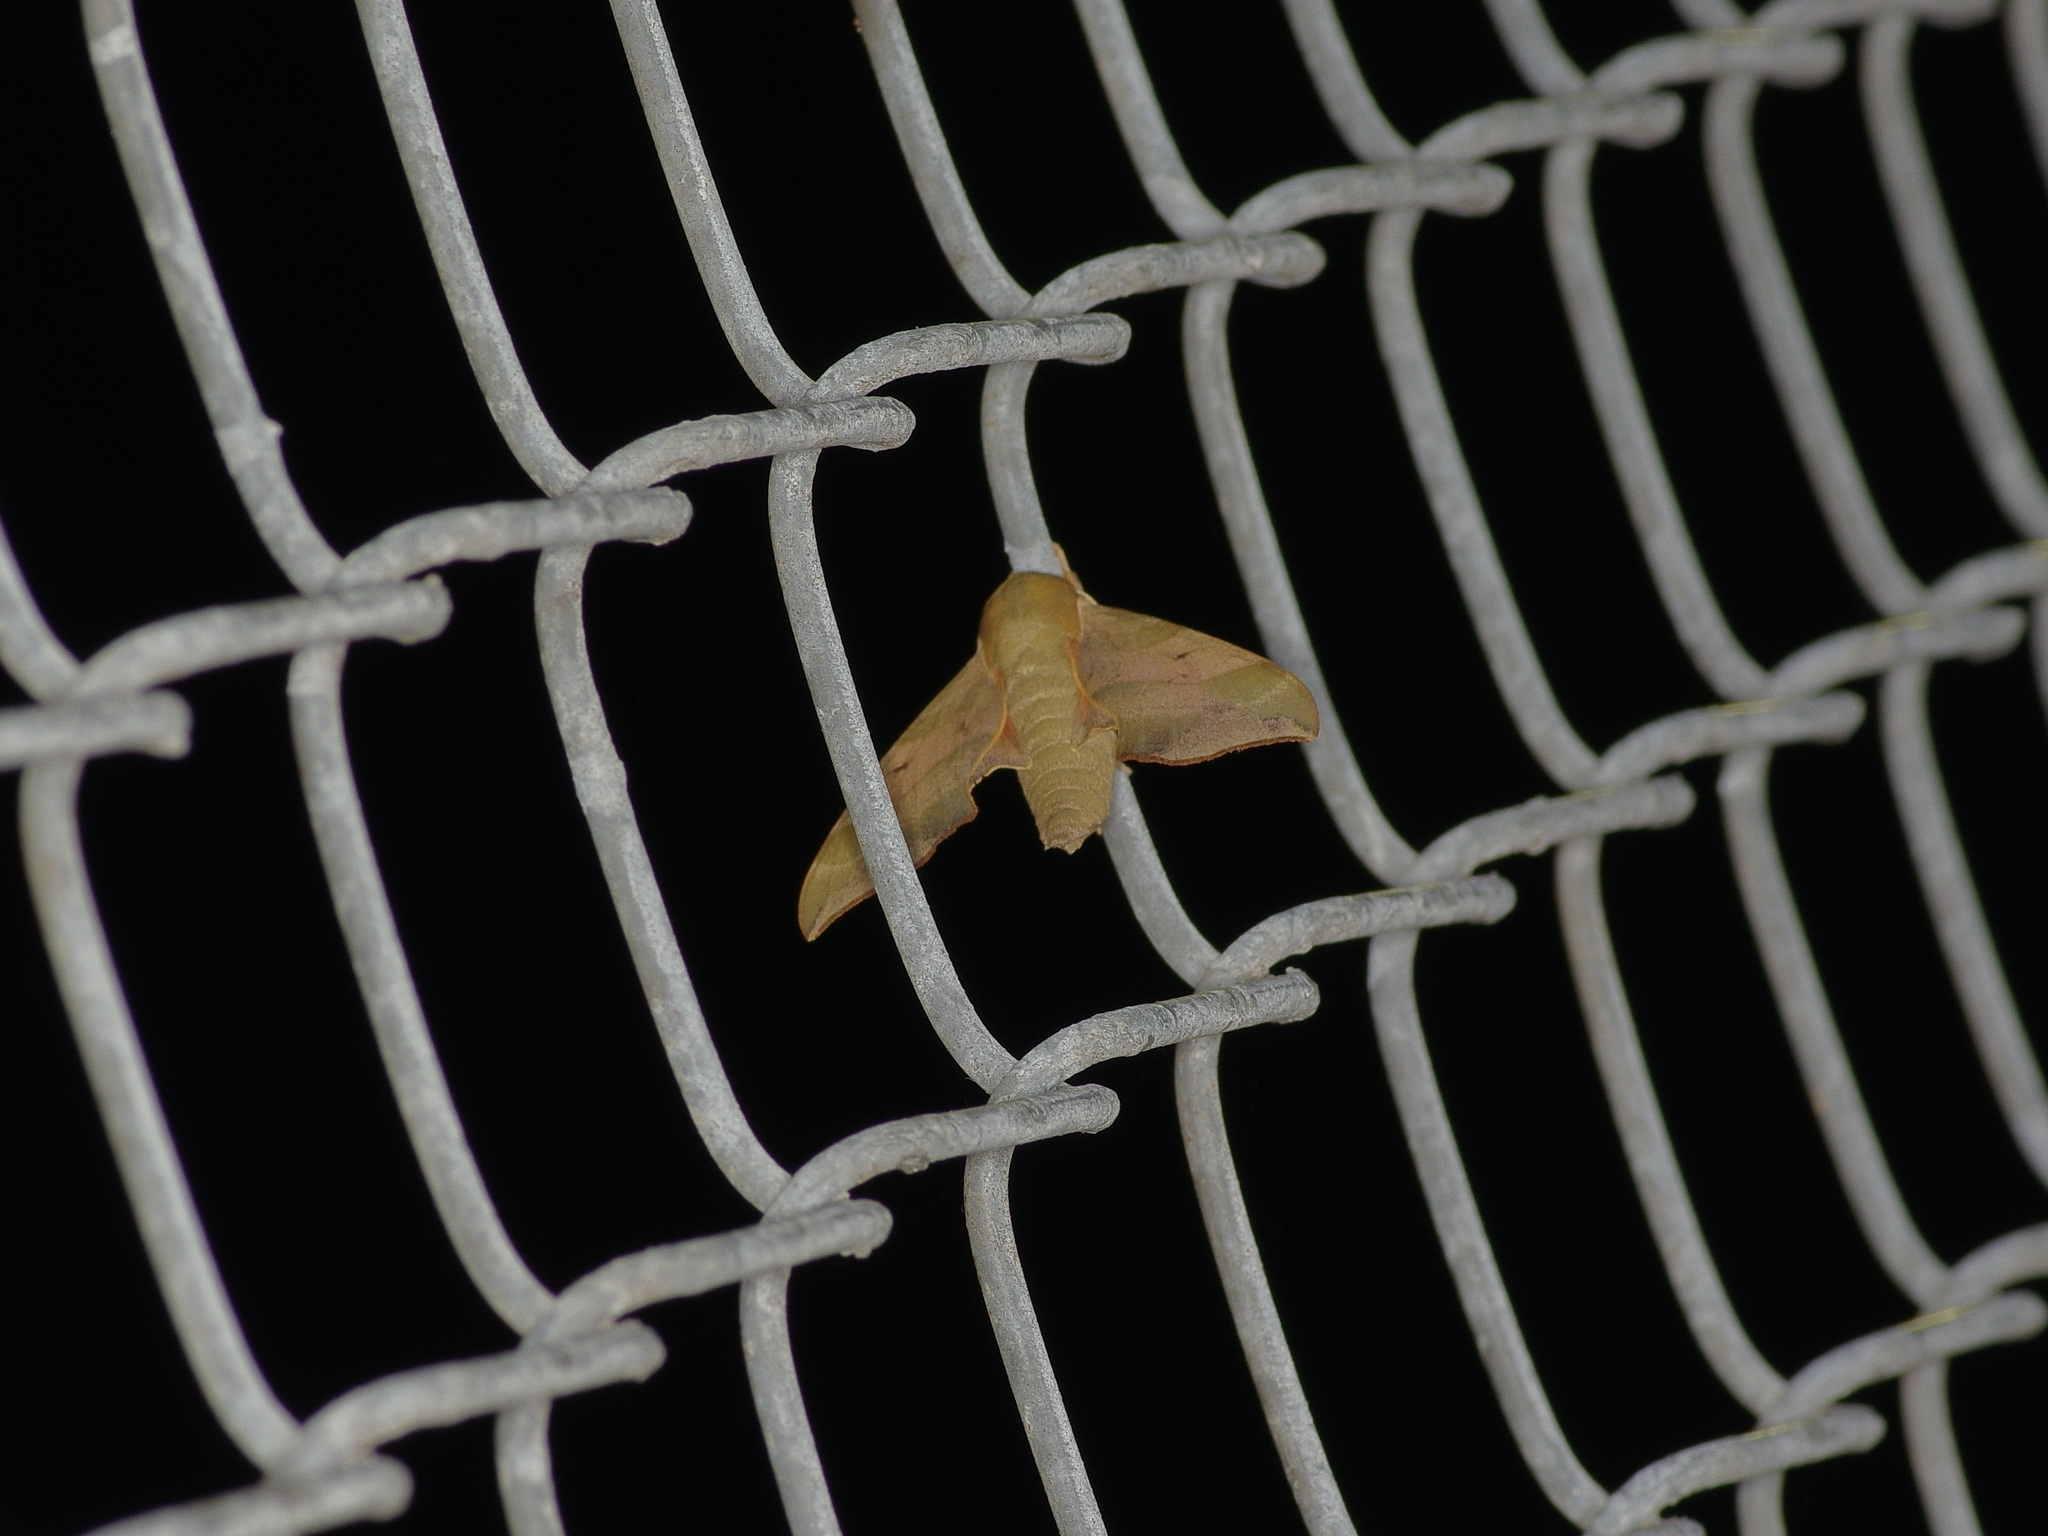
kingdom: Animalia
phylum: Arthropoda
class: Insecta
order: Lepidoptera
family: Sphingidae
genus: Darapsa
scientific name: Darapsa myron
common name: Hog sphinx
